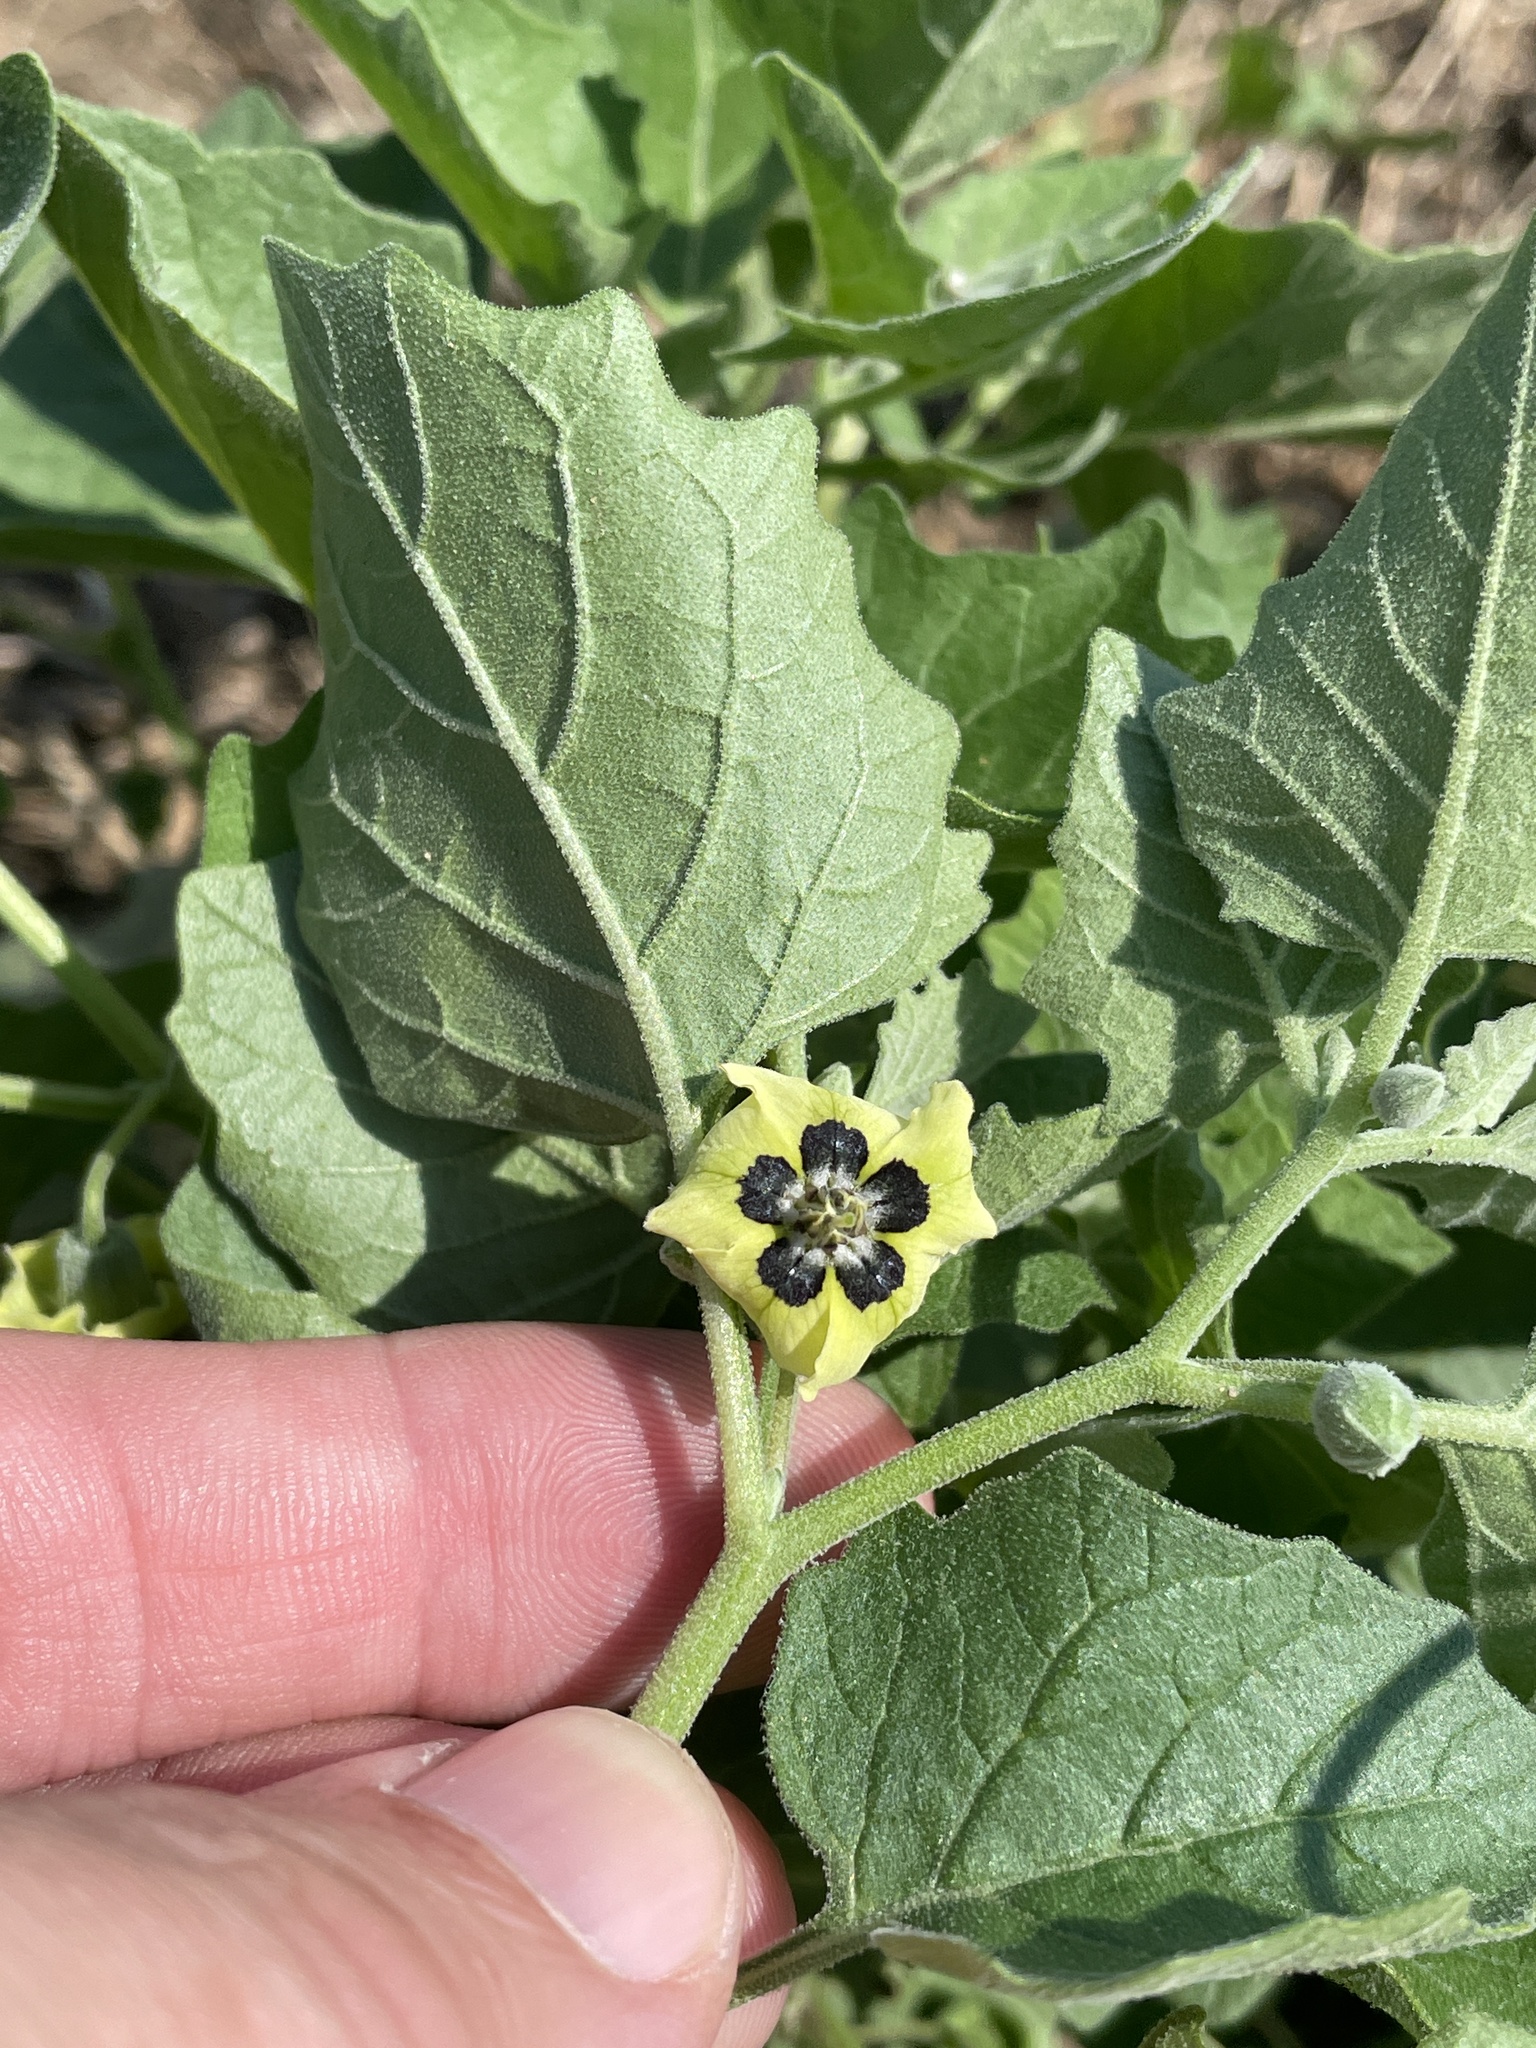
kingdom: Plantae
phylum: Tracheophyta
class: Magnoliopsida
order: Solanales
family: Solanaceae
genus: Physalis
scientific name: Physalis cinerascens
